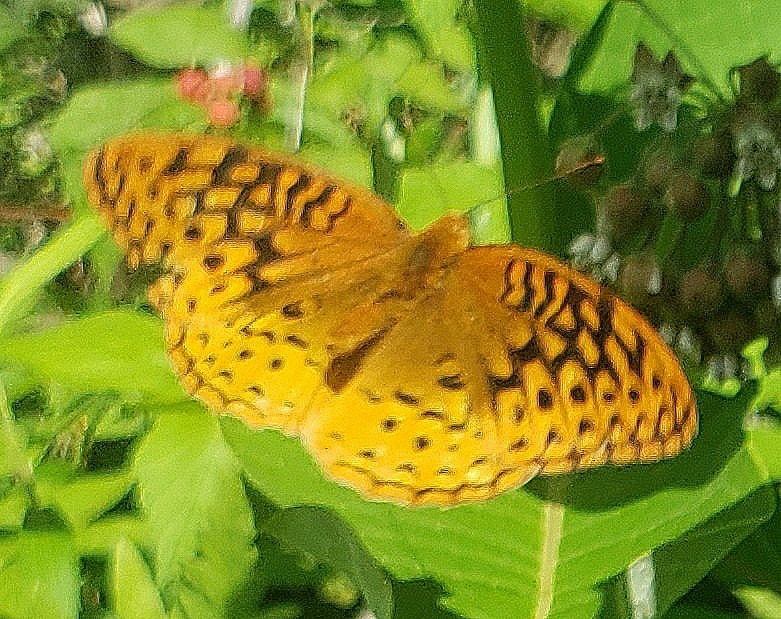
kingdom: Animalia
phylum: Arthropoda
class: Insecta
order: Lepidoptera
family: Nymphalidae
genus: Speyeria
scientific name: Speyeria cybele
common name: Great spangled fritillary
